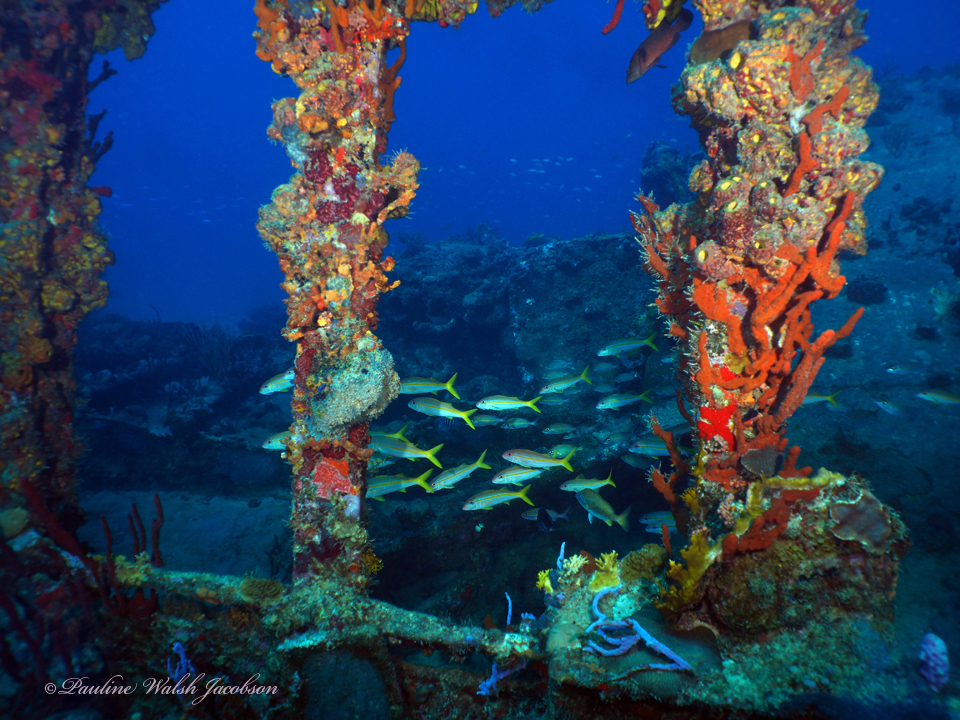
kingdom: Animalia
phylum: Chordata
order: Perciformes
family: Mullidae
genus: Mulloidichthys
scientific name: Mulloidichthys martinicus
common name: Yellow goatfish
